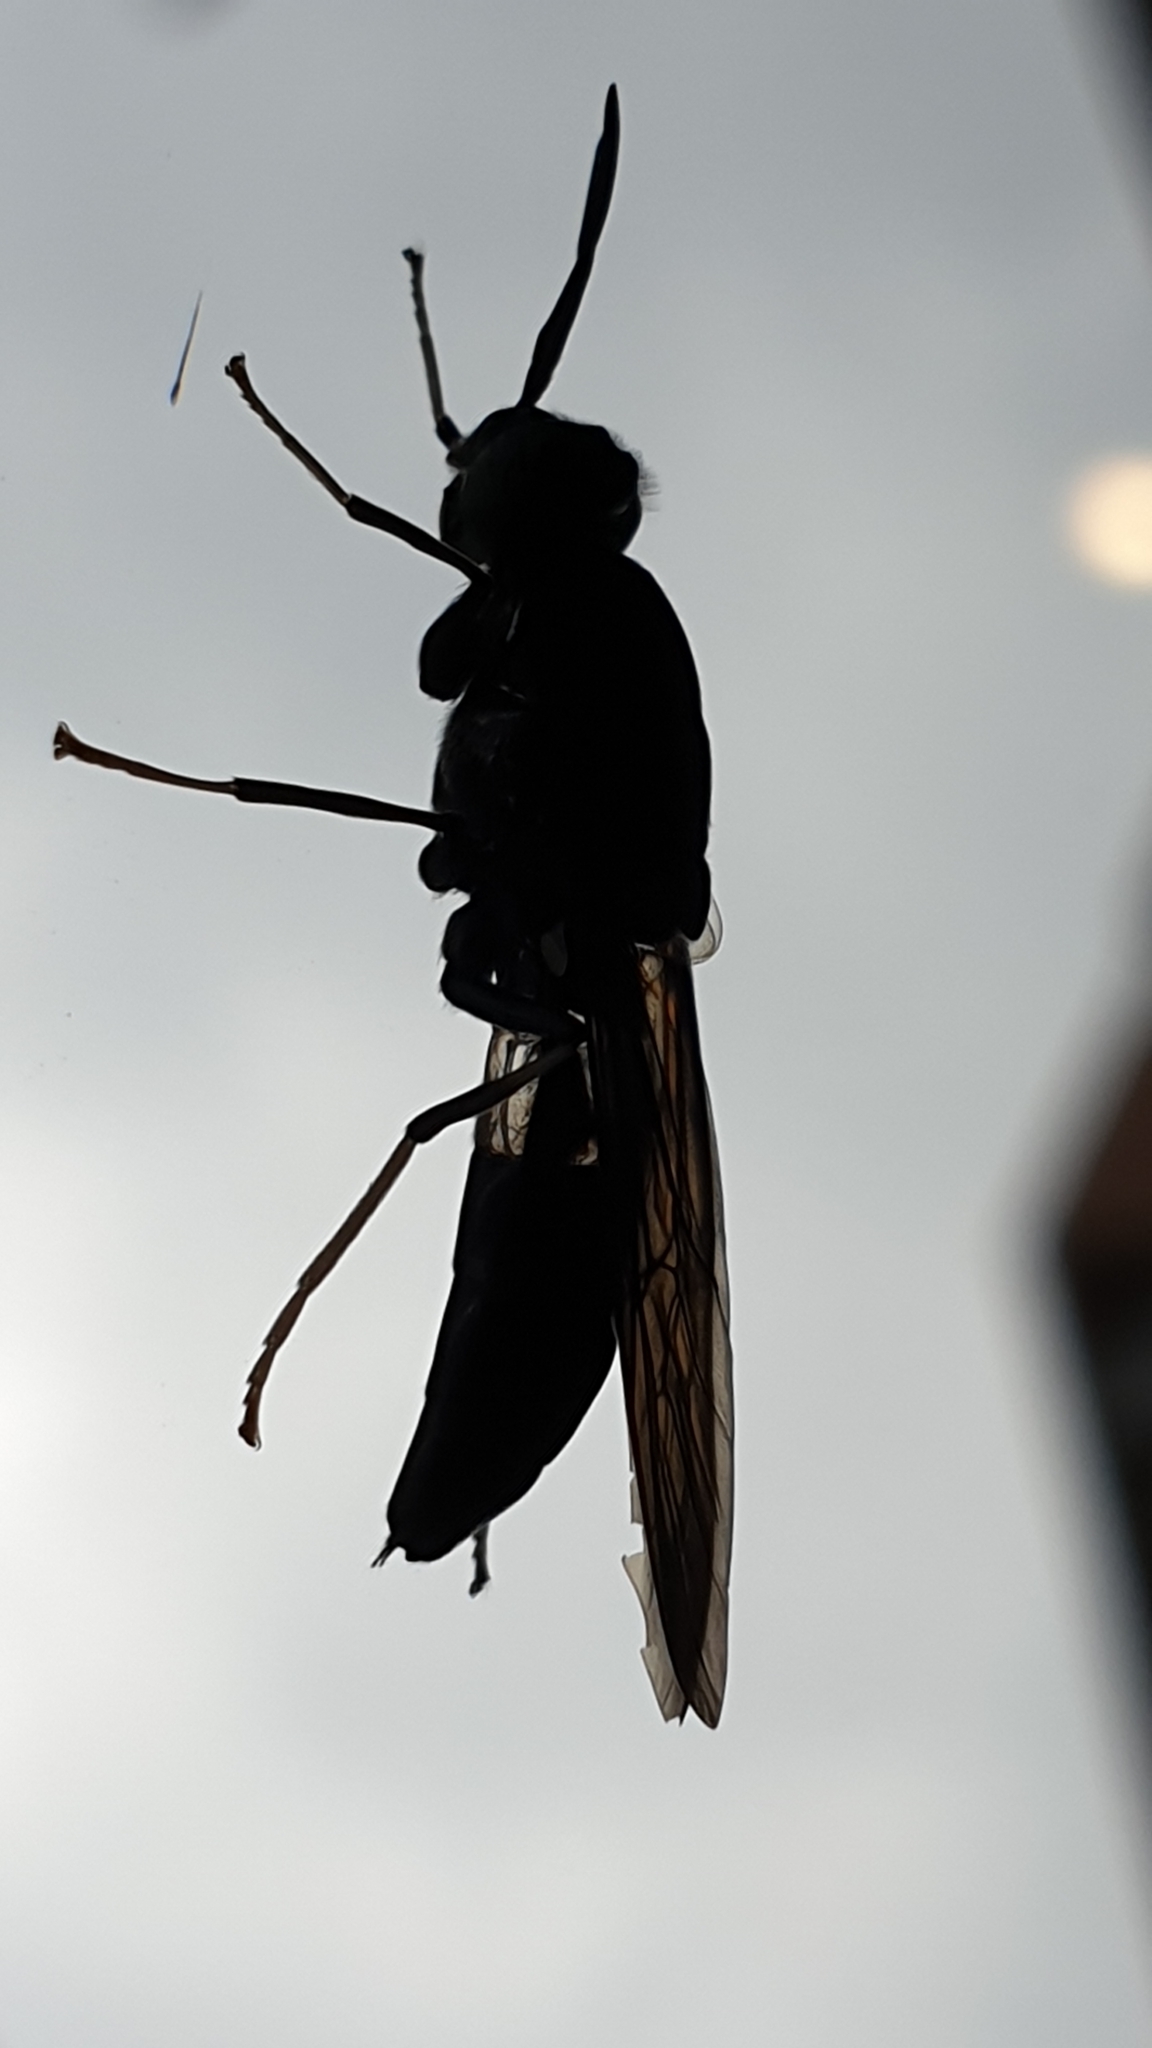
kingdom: Animalia
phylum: Arthropoda
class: Insecta
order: Diptera
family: Stratiomyidae
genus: Hermetia
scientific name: Hermetia illucens
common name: Black soldier fly
